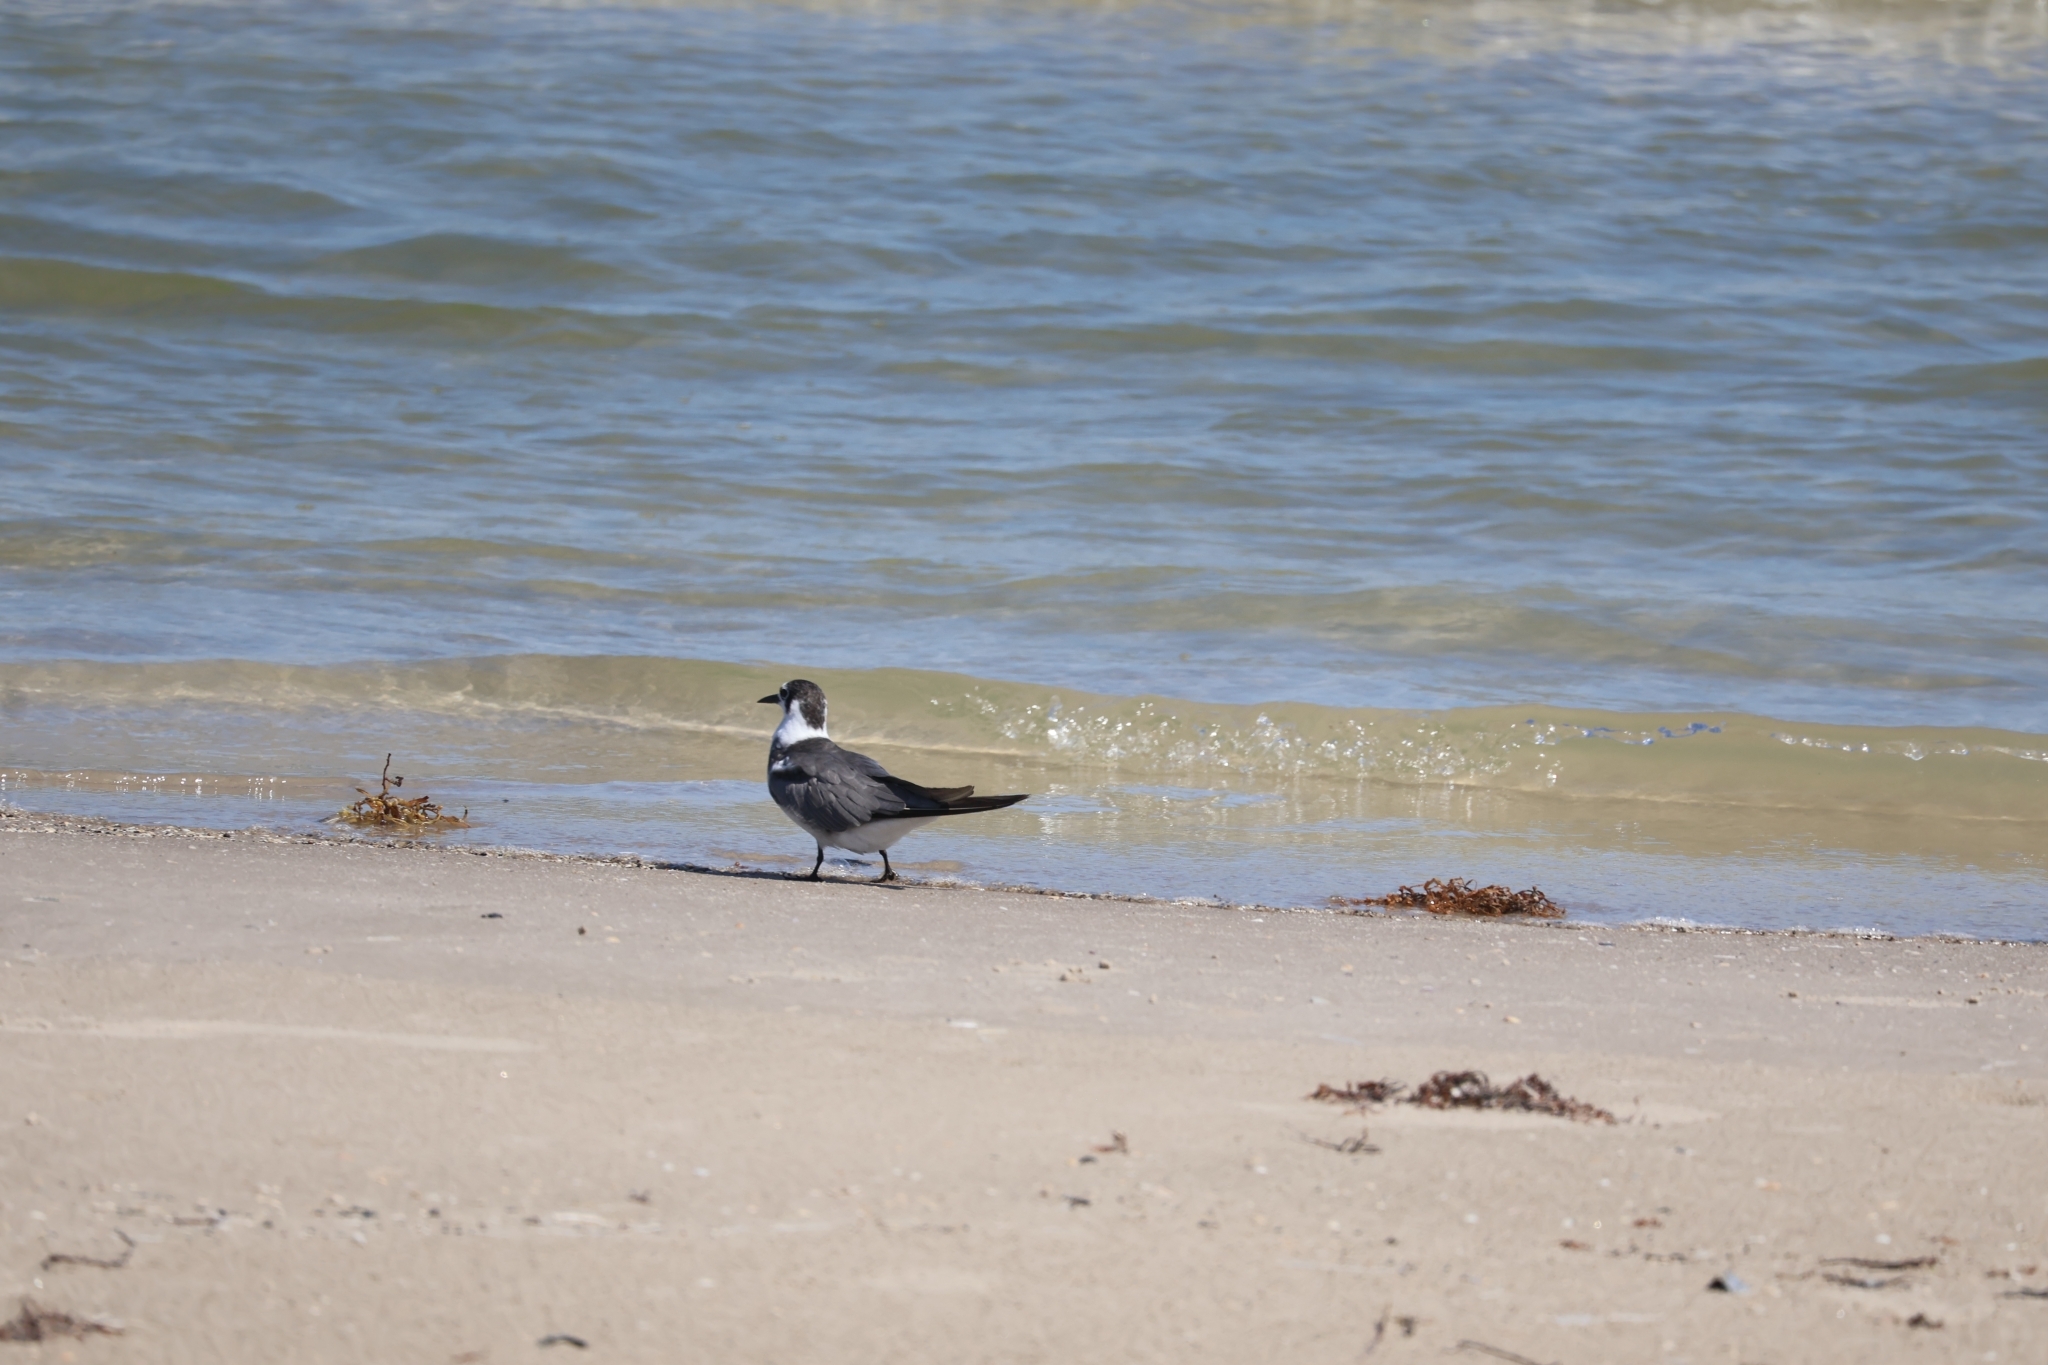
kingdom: Animalia
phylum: Chordata
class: Aves
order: Charadriiformes
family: Laridae
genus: Chlidonias
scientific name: Chlidonias niger
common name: Black tern
